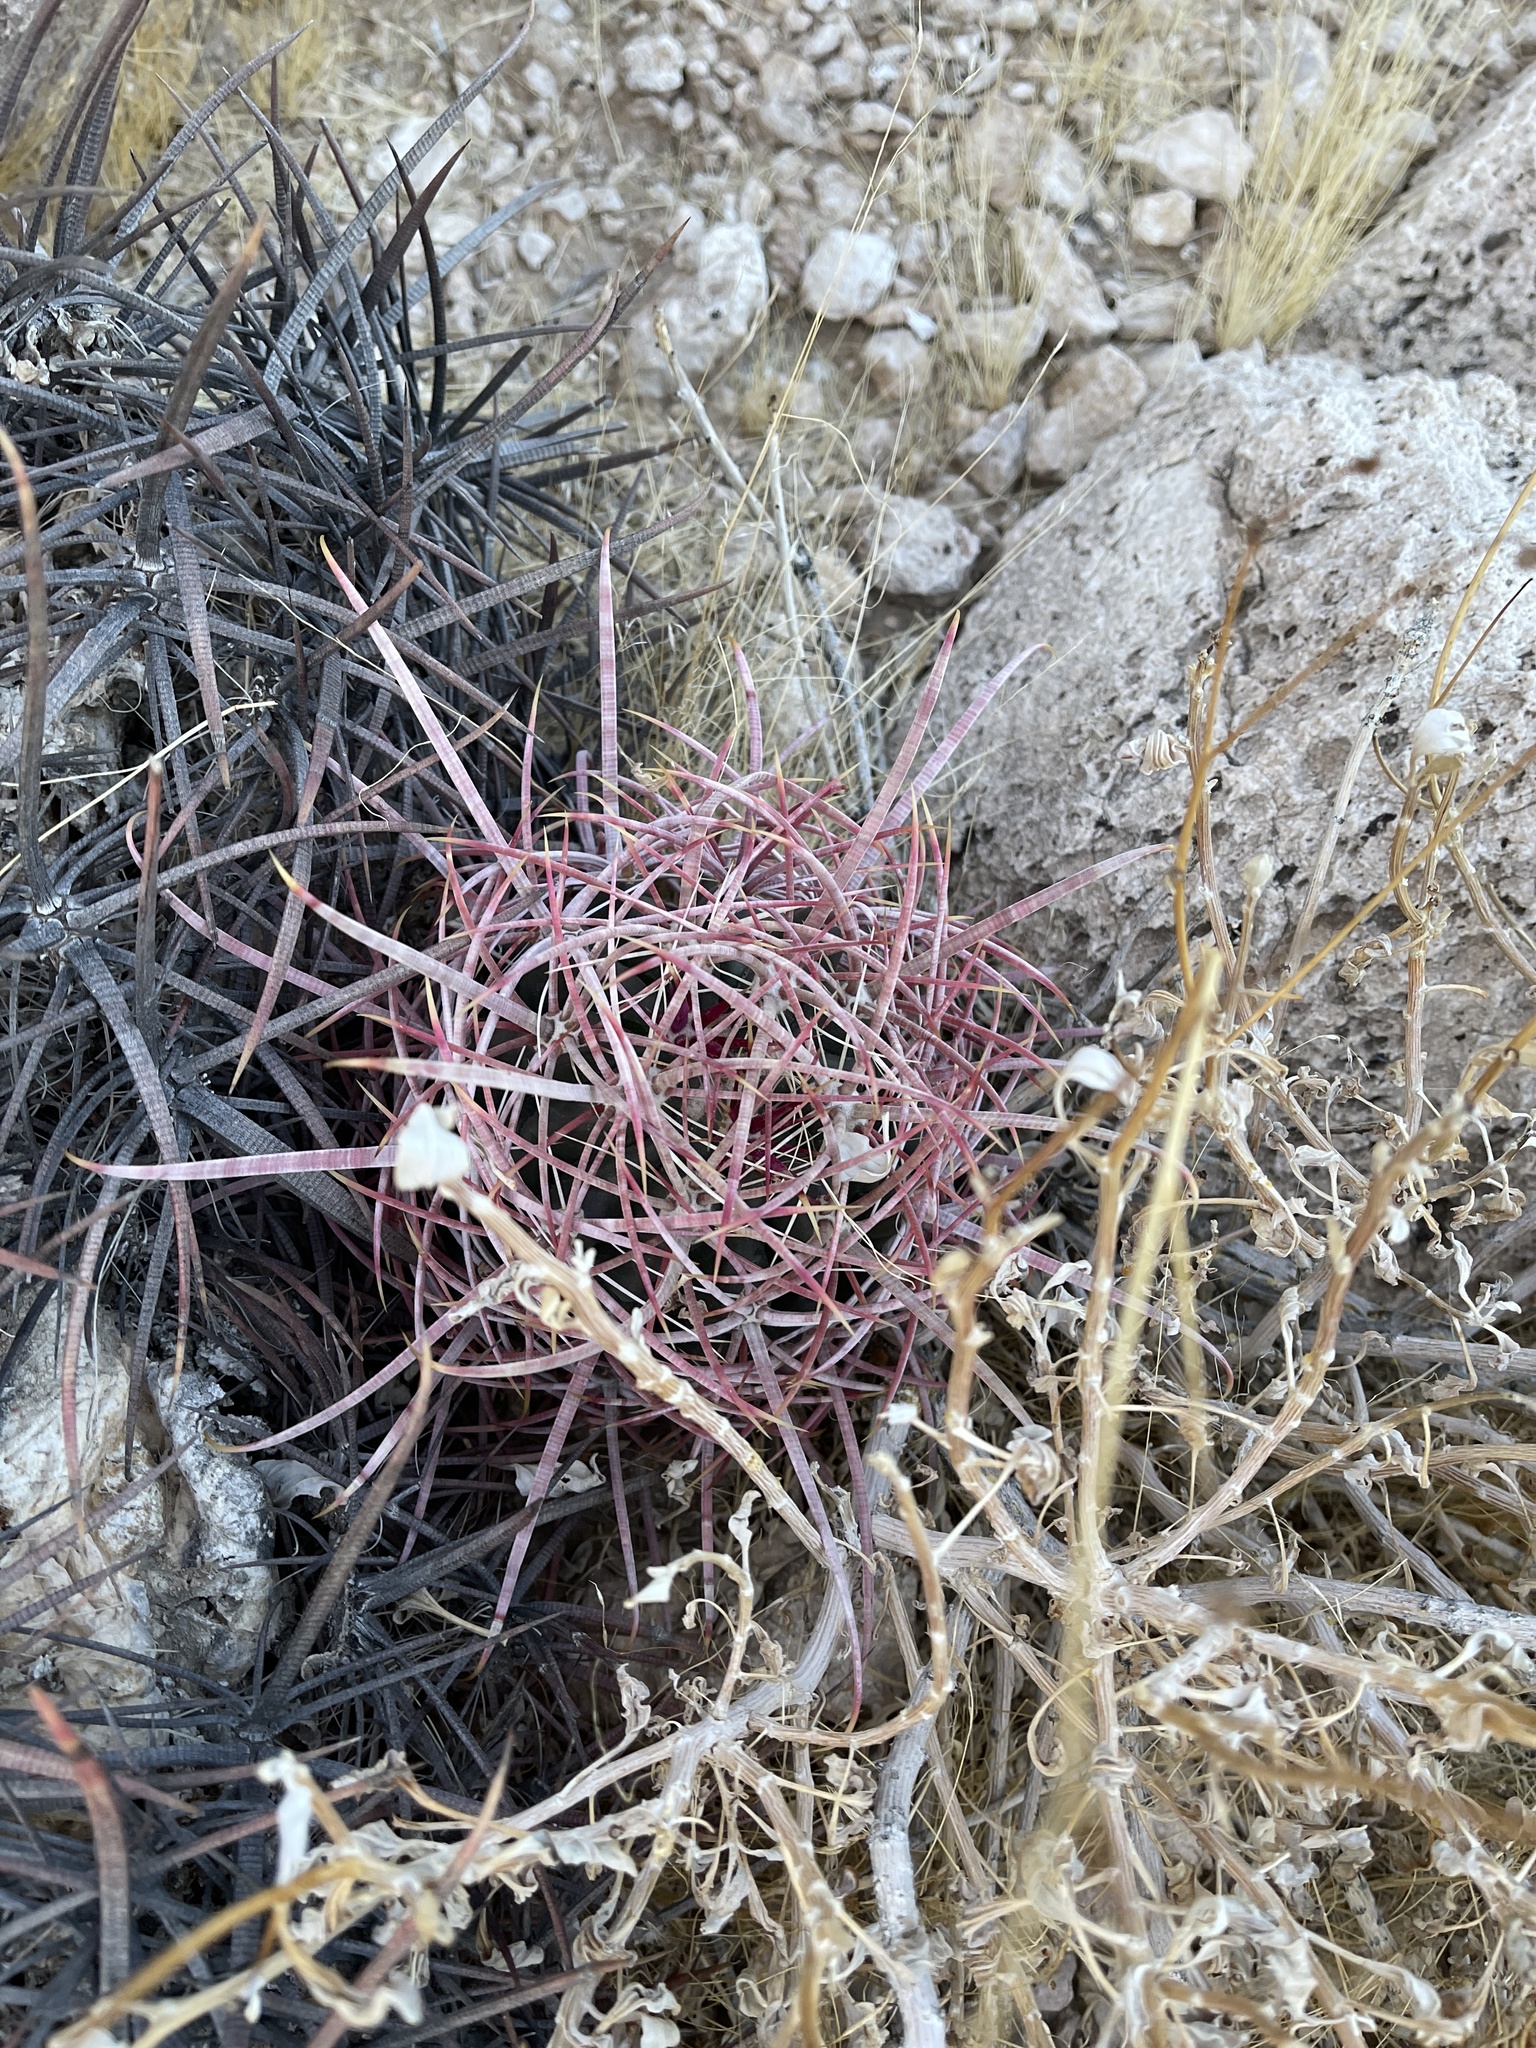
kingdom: Plantae
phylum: Tracheophyta
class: Magnoliopsida
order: Caryophyllales
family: Cactaceae
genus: Ferocactus
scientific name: Ferocactus cylindraceus
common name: California barrel cactus
